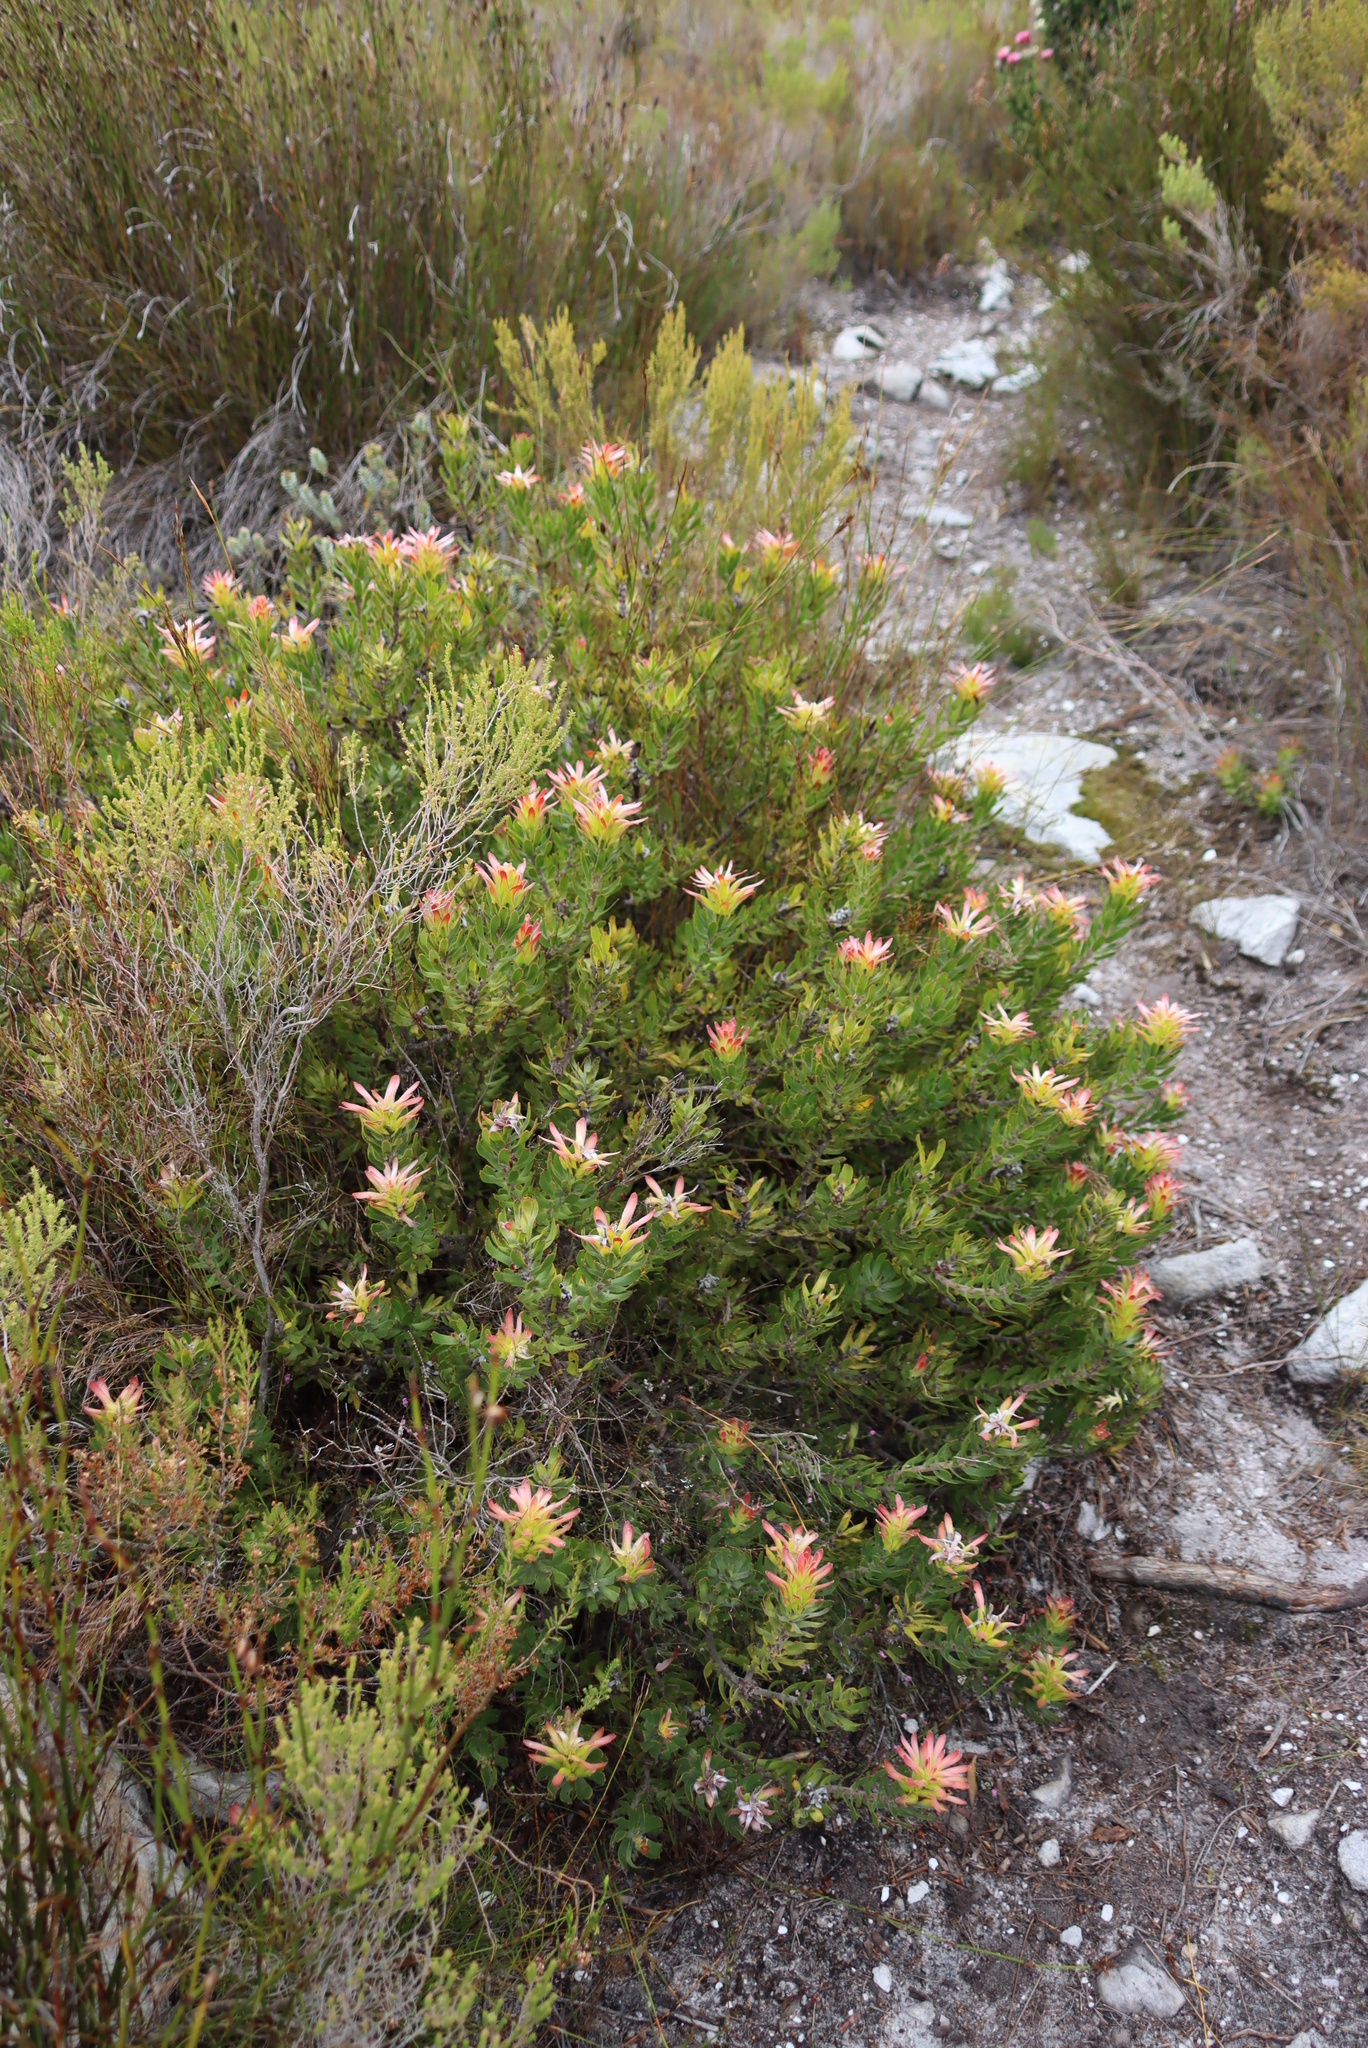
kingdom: Plantae
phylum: Tracheophyta
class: Magnoliopsida
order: Proteales
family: Proteaceae
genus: Mimetes
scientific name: Mimetes cucullatus
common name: Common pagoda
